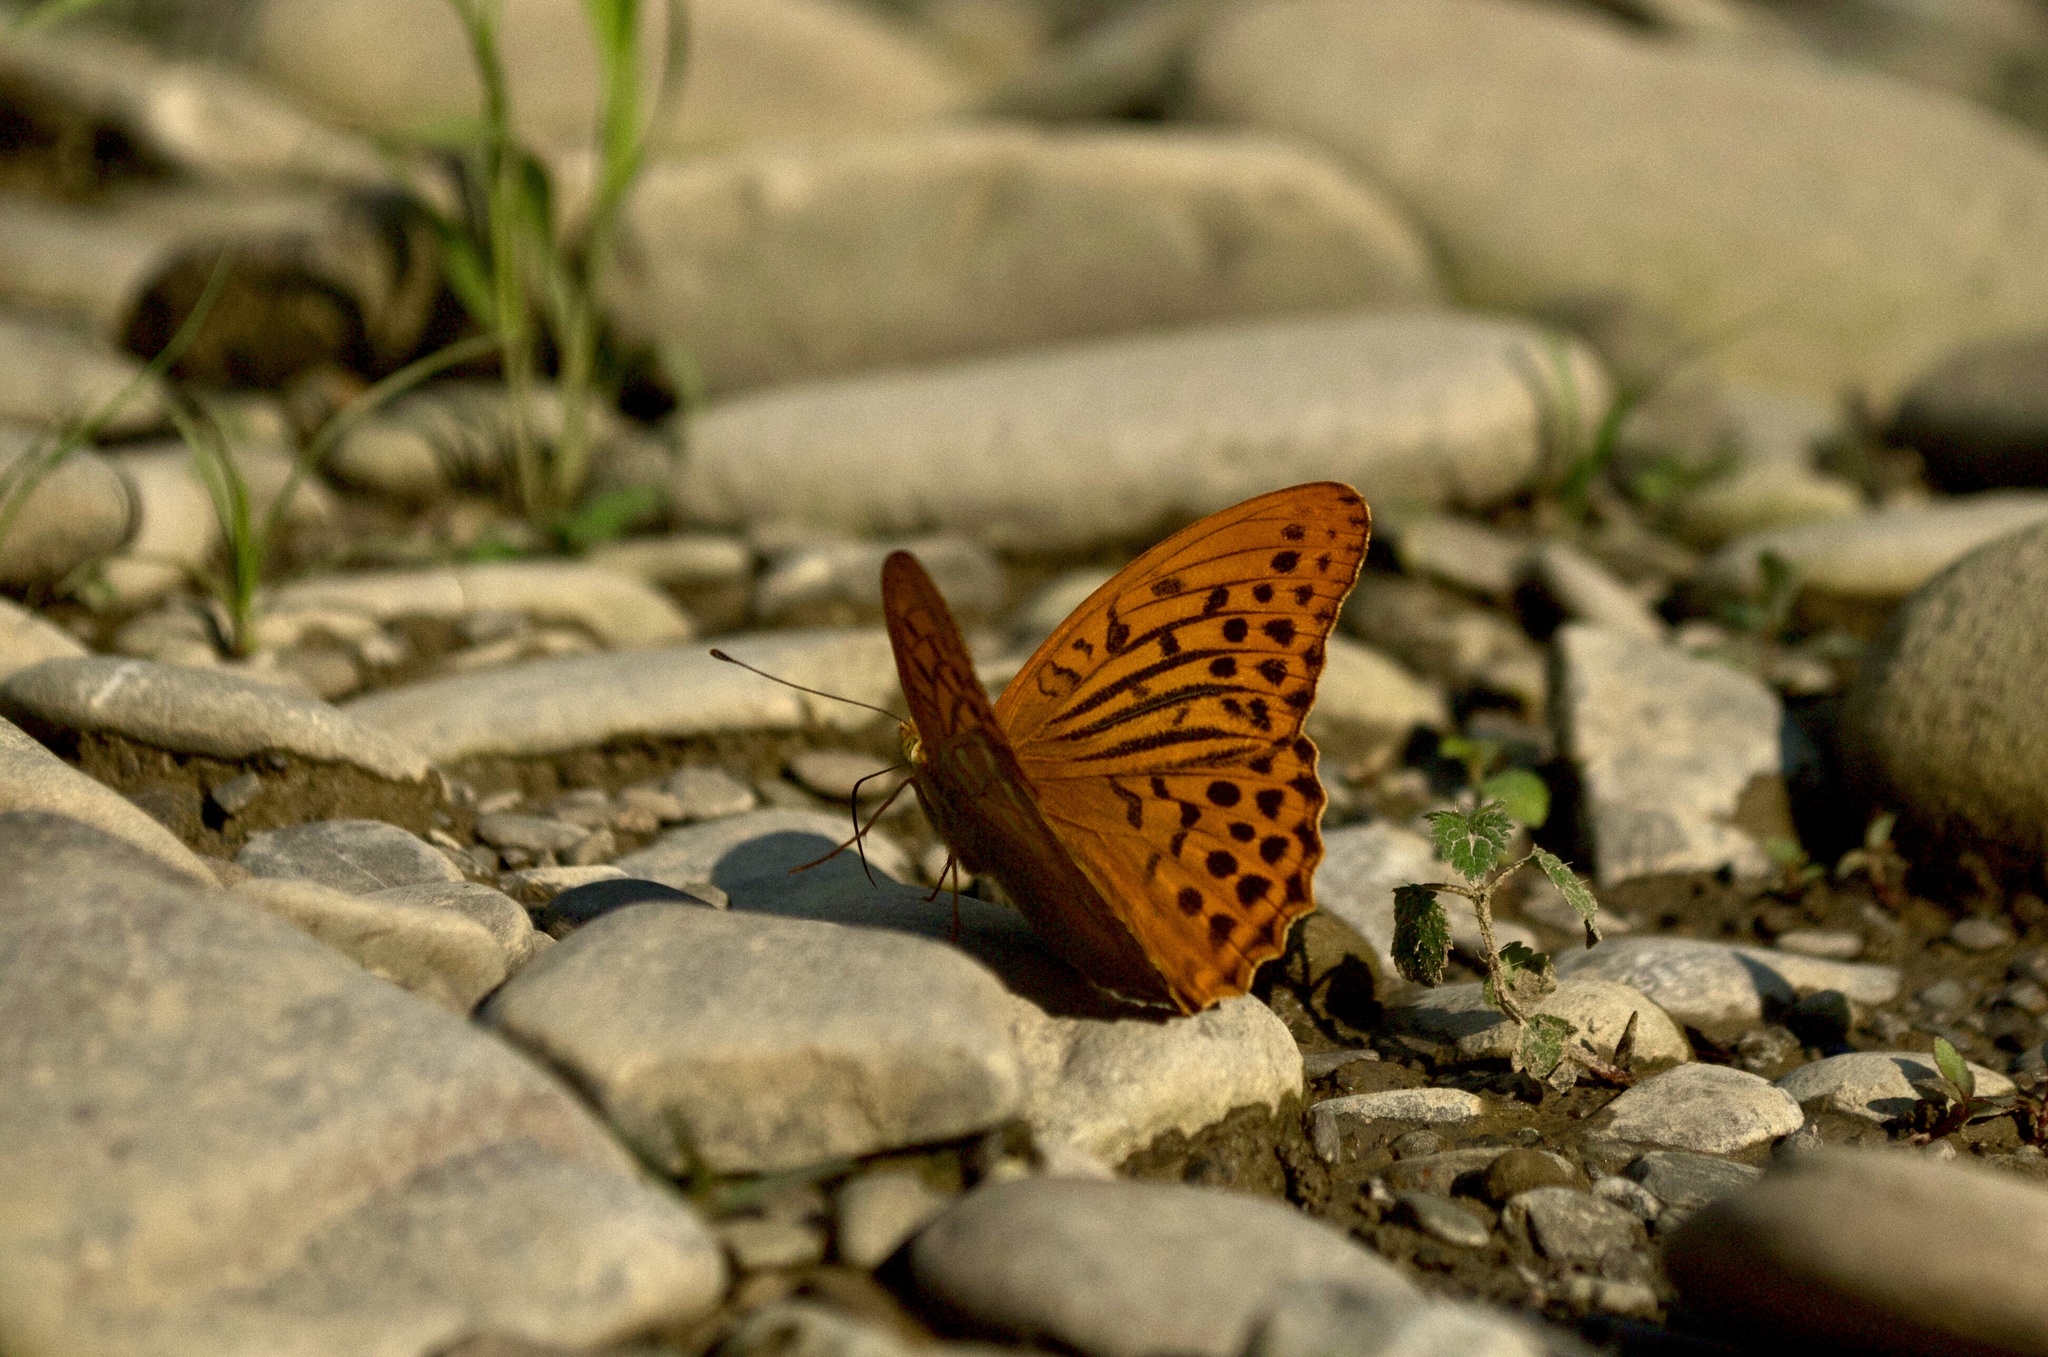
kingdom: Animalia
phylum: Arthropoda
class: Insecta
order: Lepidoptera
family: Nymphalidae
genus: Argynnis
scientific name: Argynnis paphia
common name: Silver-washed fritillary
